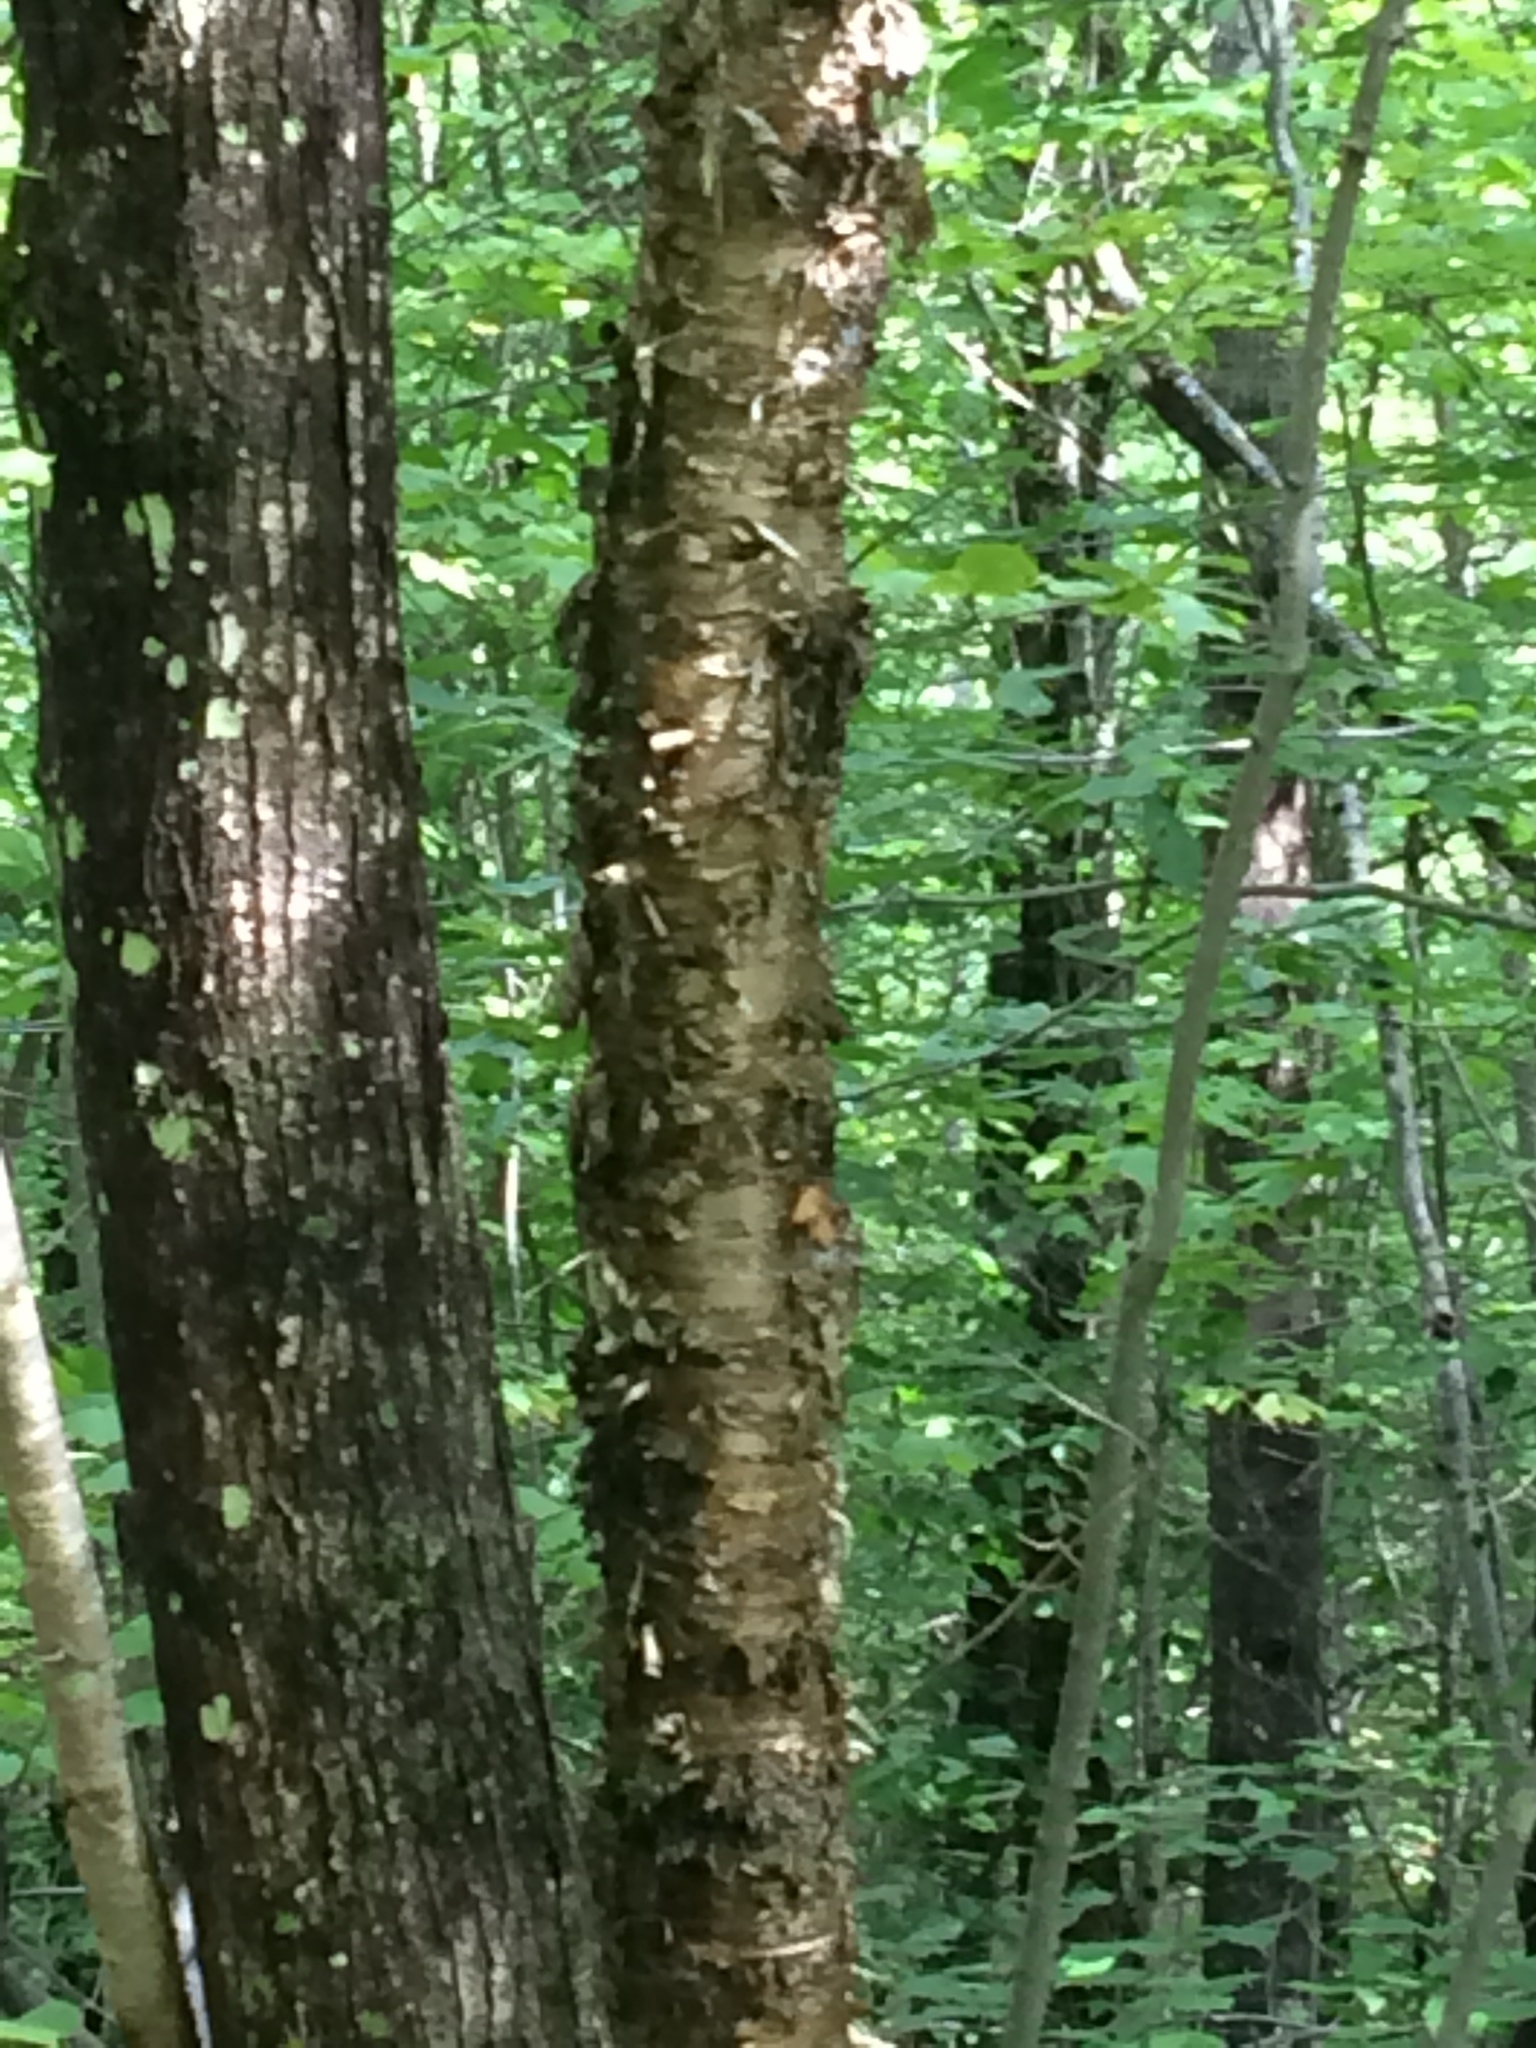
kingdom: Plantae
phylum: Tracheophyta
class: Magnoliopsida
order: Fagales
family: Betulaceae
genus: Betula
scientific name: Betula alleghaniensis
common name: Yellow birch
